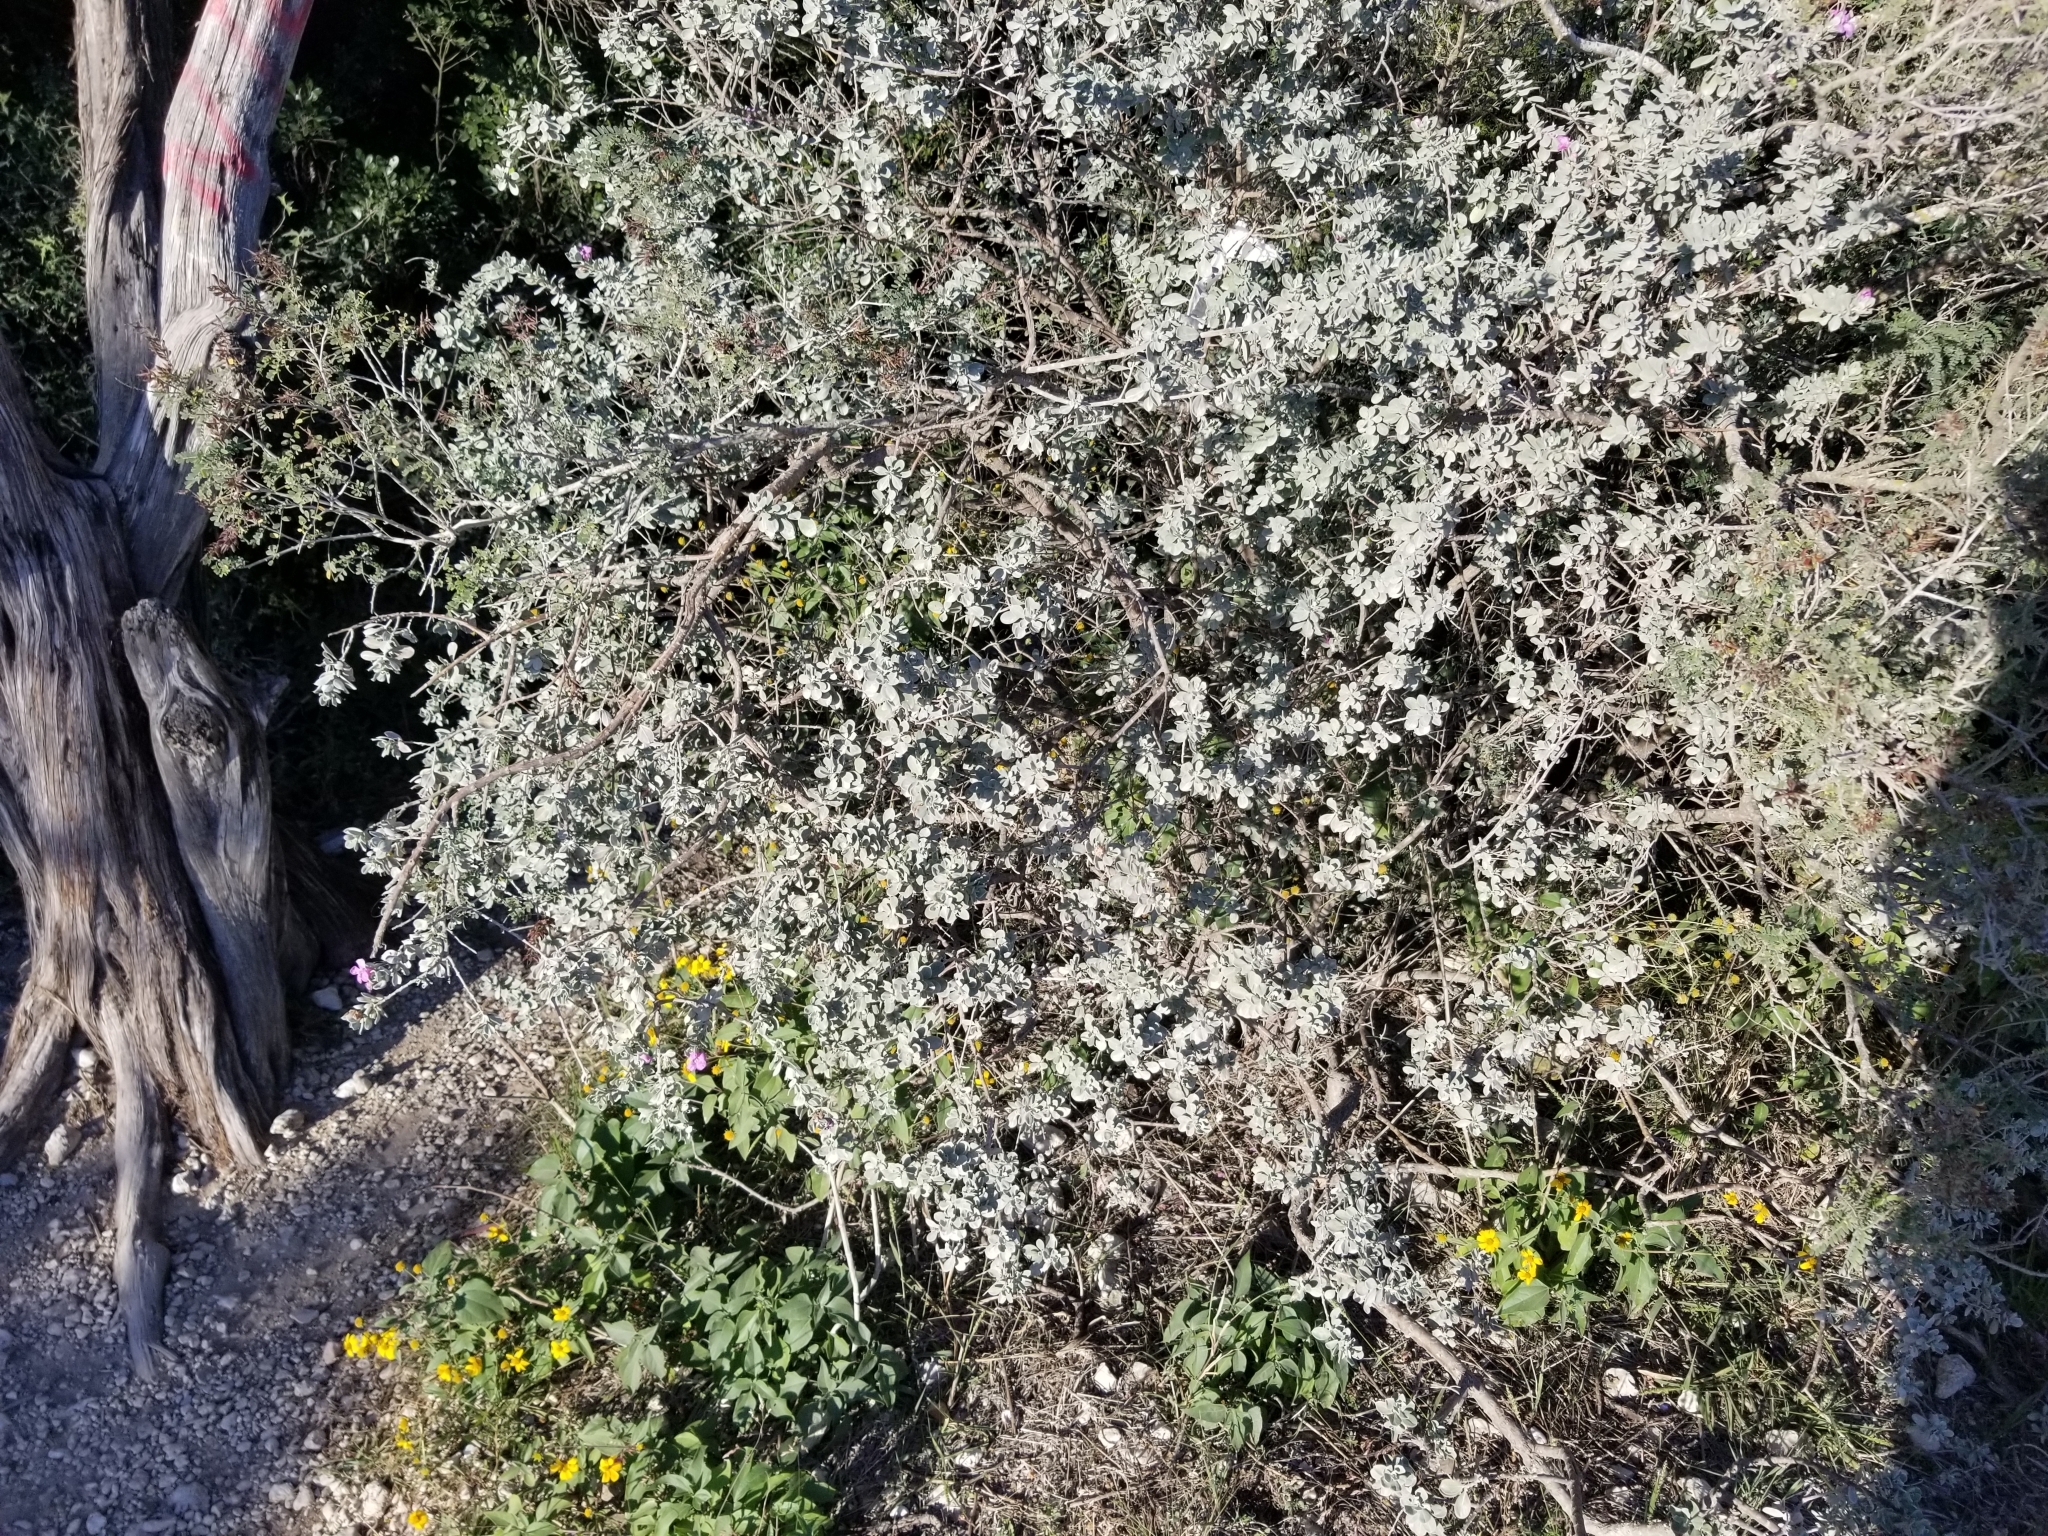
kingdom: Plantae
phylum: Tracheophyta
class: Magnoliopsida
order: Lamiales
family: Scrophulariaceae
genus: Leucophyllum
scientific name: Leucophyllum frutescens
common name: Texas silverleaf
